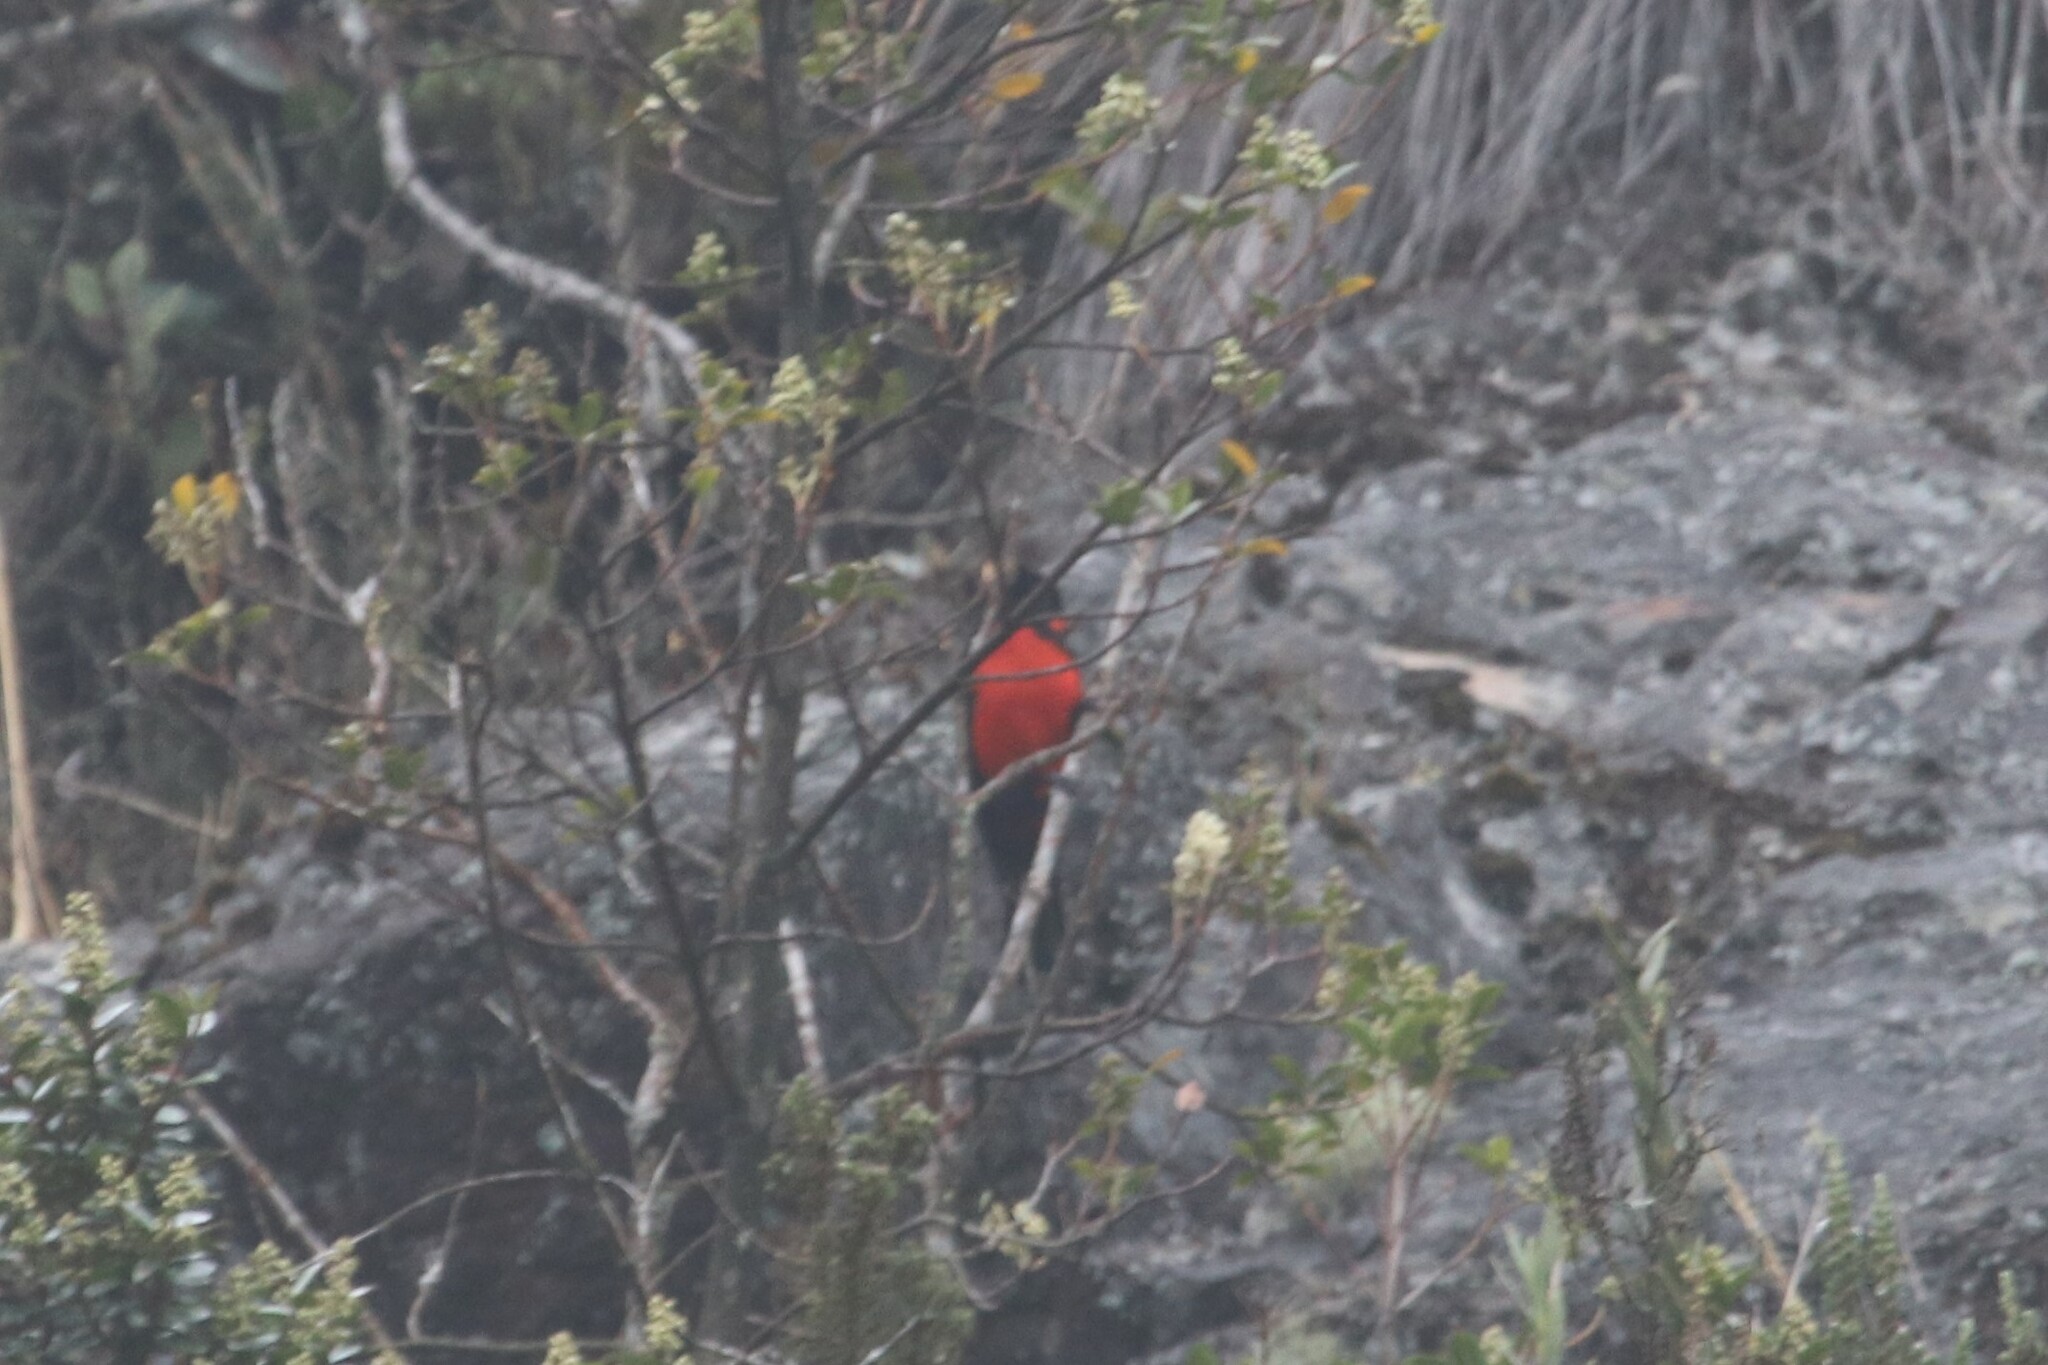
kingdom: Animalia
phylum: Chordata
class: Aves
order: Passeriformes
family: Thraupidae
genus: Anisognathus
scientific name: Anisognathus igniventris
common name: Scarlet-bellied mountain tanager
